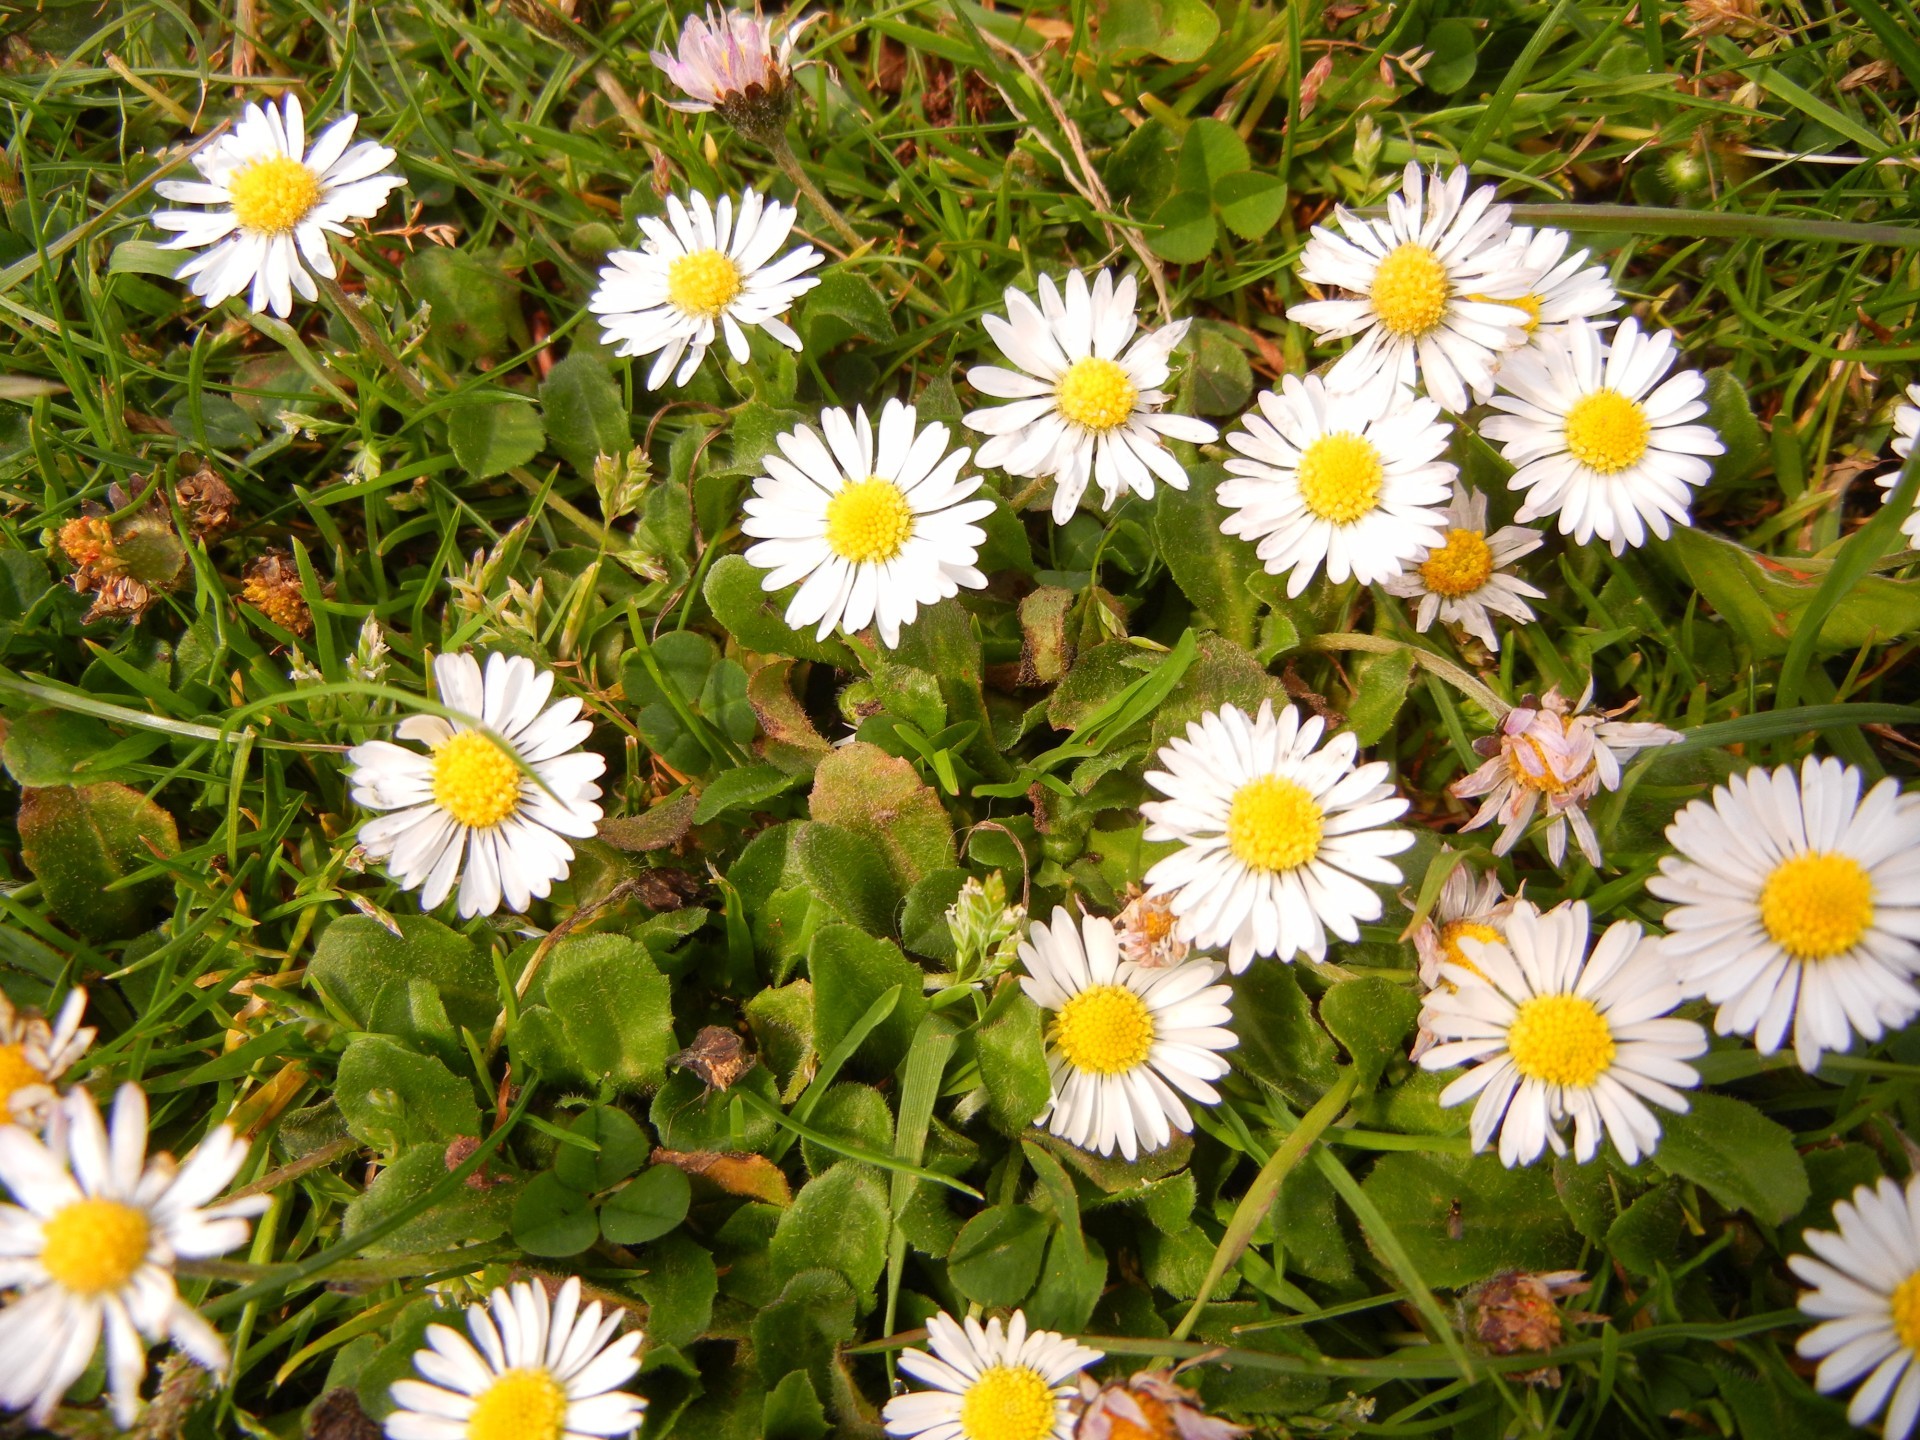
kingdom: Plantae
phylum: Tracheophyta
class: Magnoliopsida
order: Asterales
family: Asteraceae
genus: Bellis
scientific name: Bellis perennis
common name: Lawndaisy
